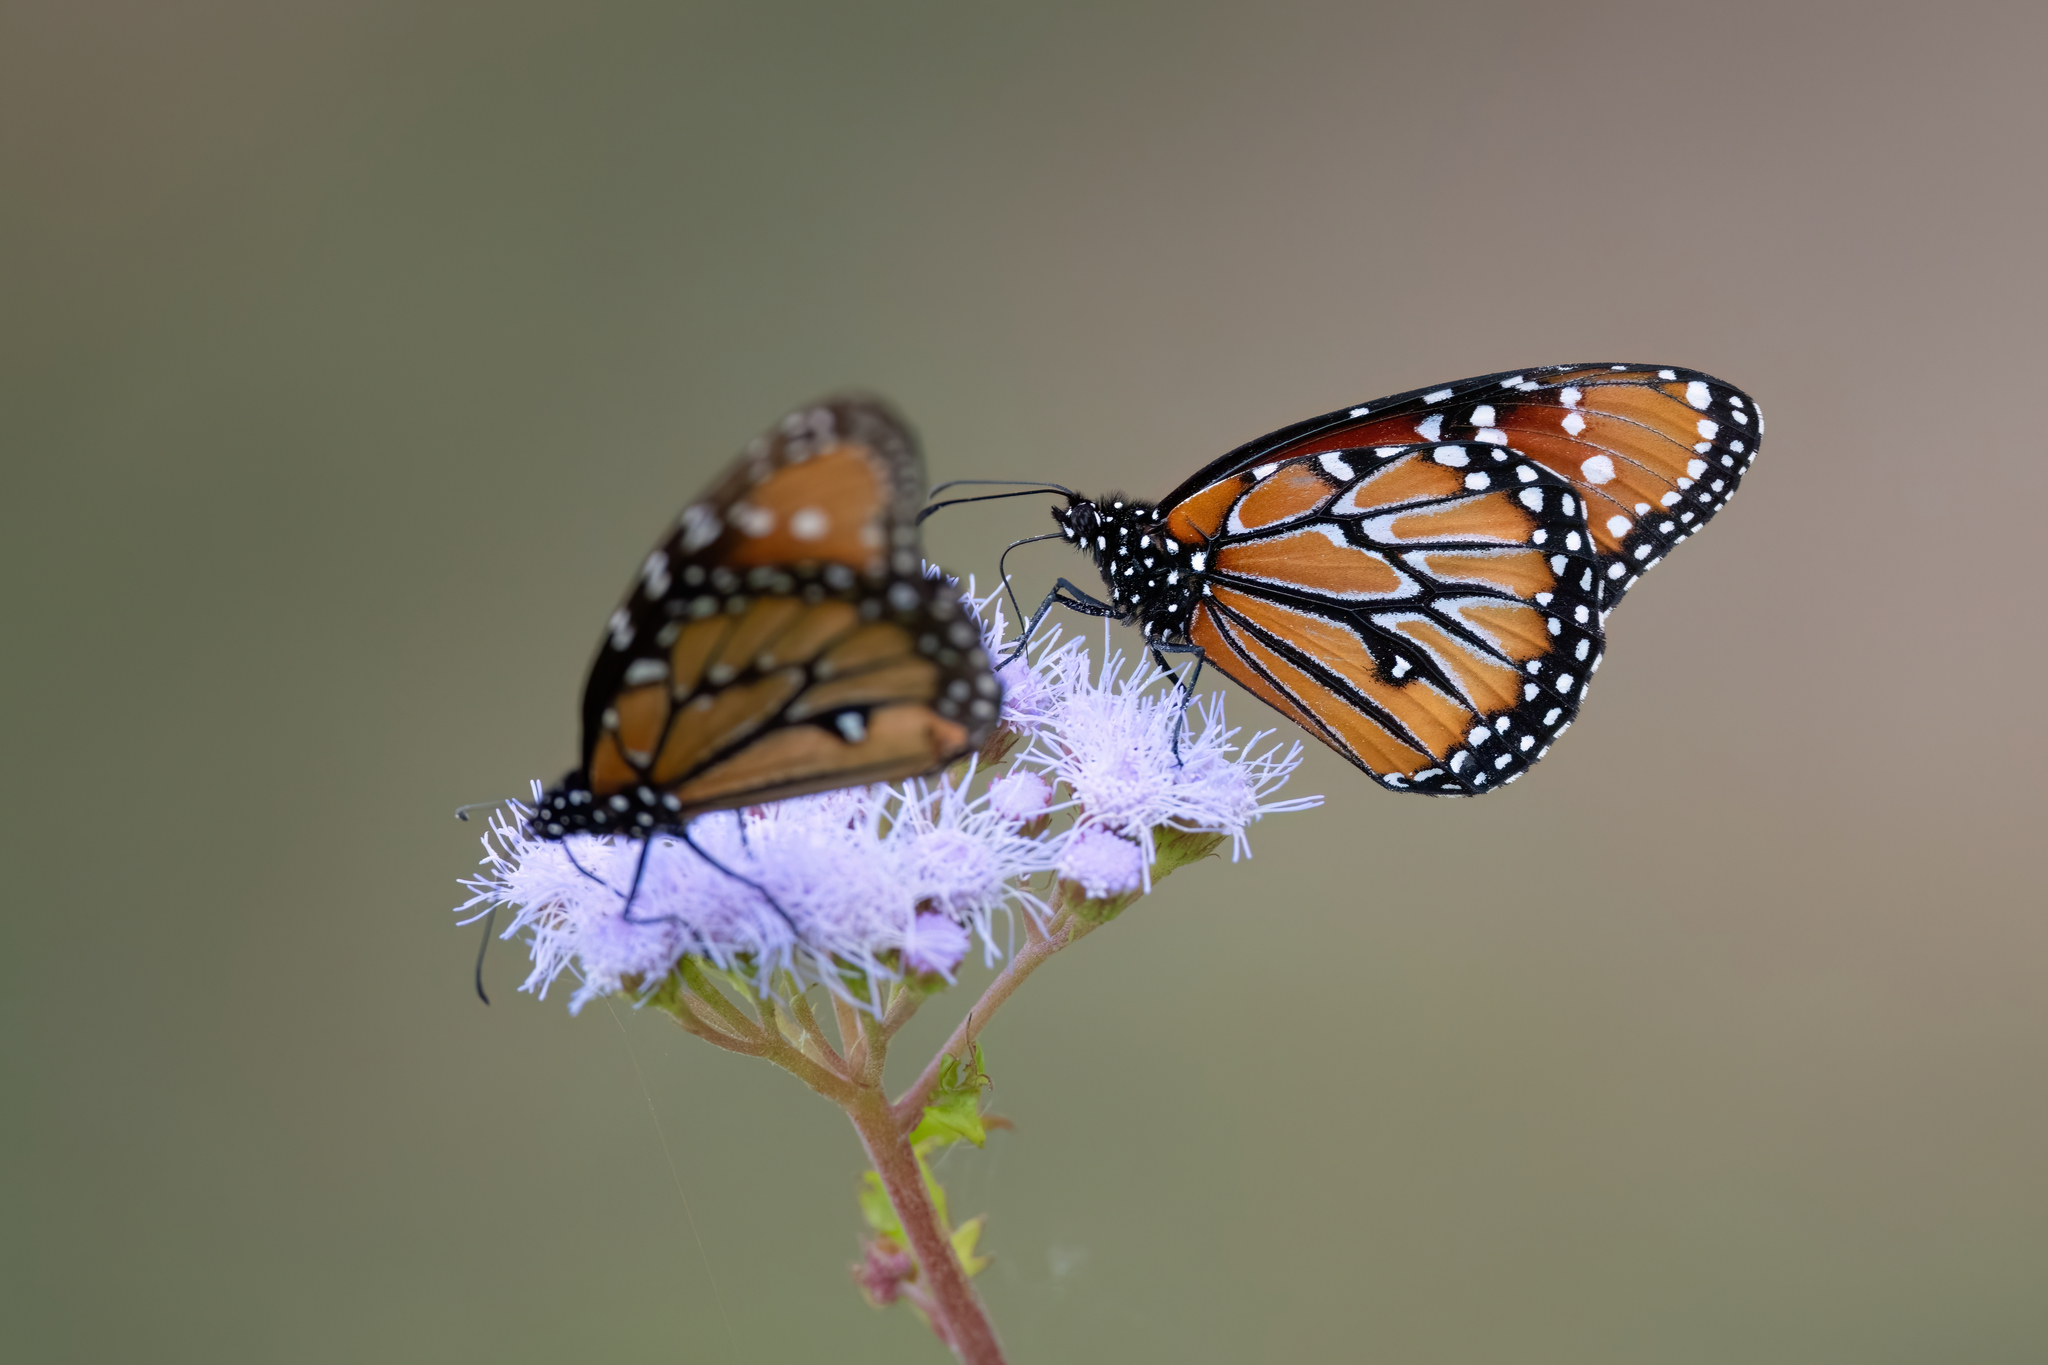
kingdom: Animalia
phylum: Arthropoda
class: Insecta
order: Lepidoptera
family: Nymphalidae
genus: Danaus
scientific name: Danaus gilippus
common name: Queen
